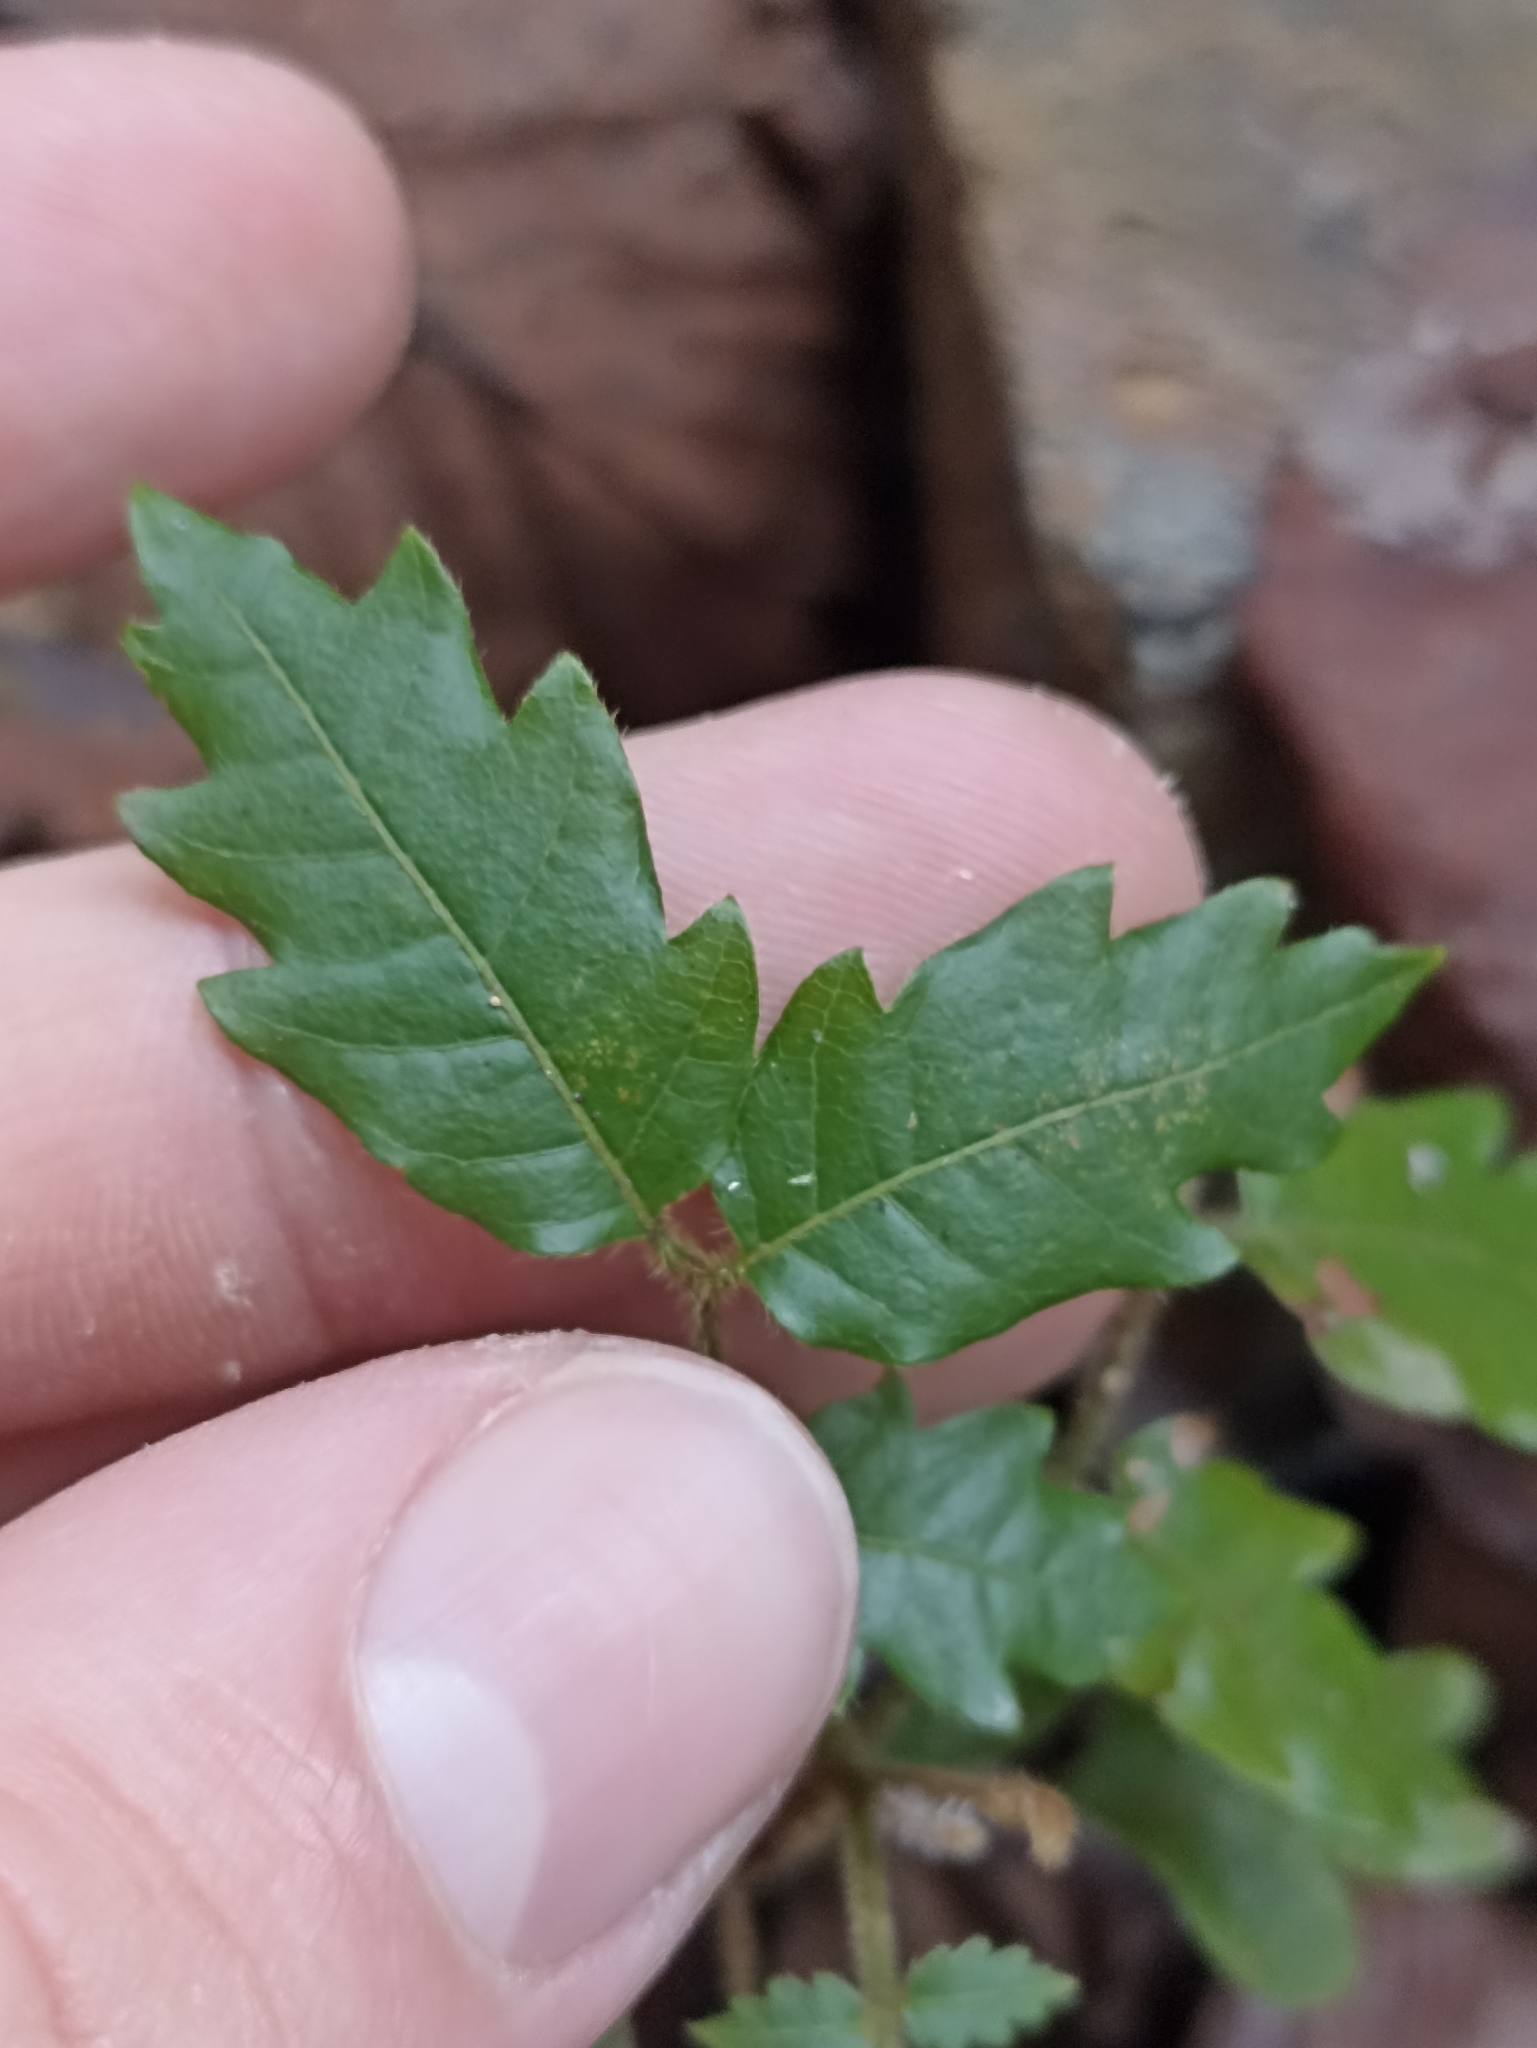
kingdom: Plantae
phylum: Tracheophyta
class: Magnoliopsida
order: Sapindales
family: Sapindaceae
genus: Alectryon
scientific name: Alectryon excelsus
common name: Three kings titoki
